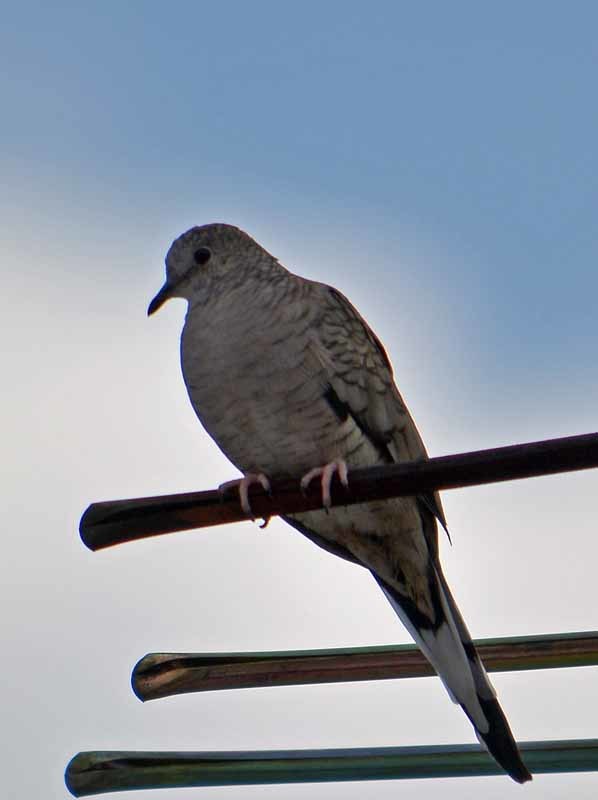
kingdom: Animalia
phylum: Chordata
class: Aves
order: Columbiformes
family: Columbidae
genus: Columbina
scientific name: Columbina inca
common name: Inca dove
